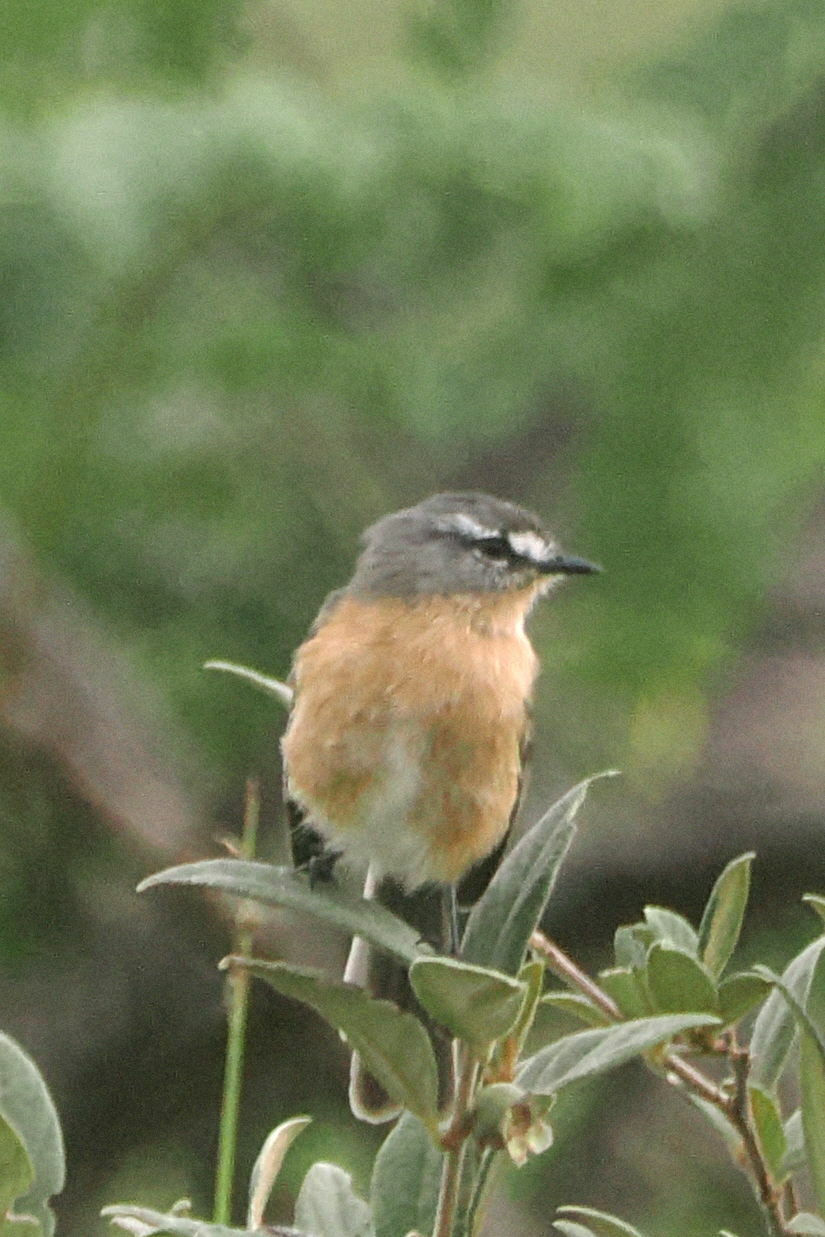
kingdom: Animalia
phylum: Chordata
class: Aves
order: Passeriformes
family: Tyrannidae
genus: Polystictus
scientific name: Polystictus superciliaris
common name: Grey-backed tachuri
